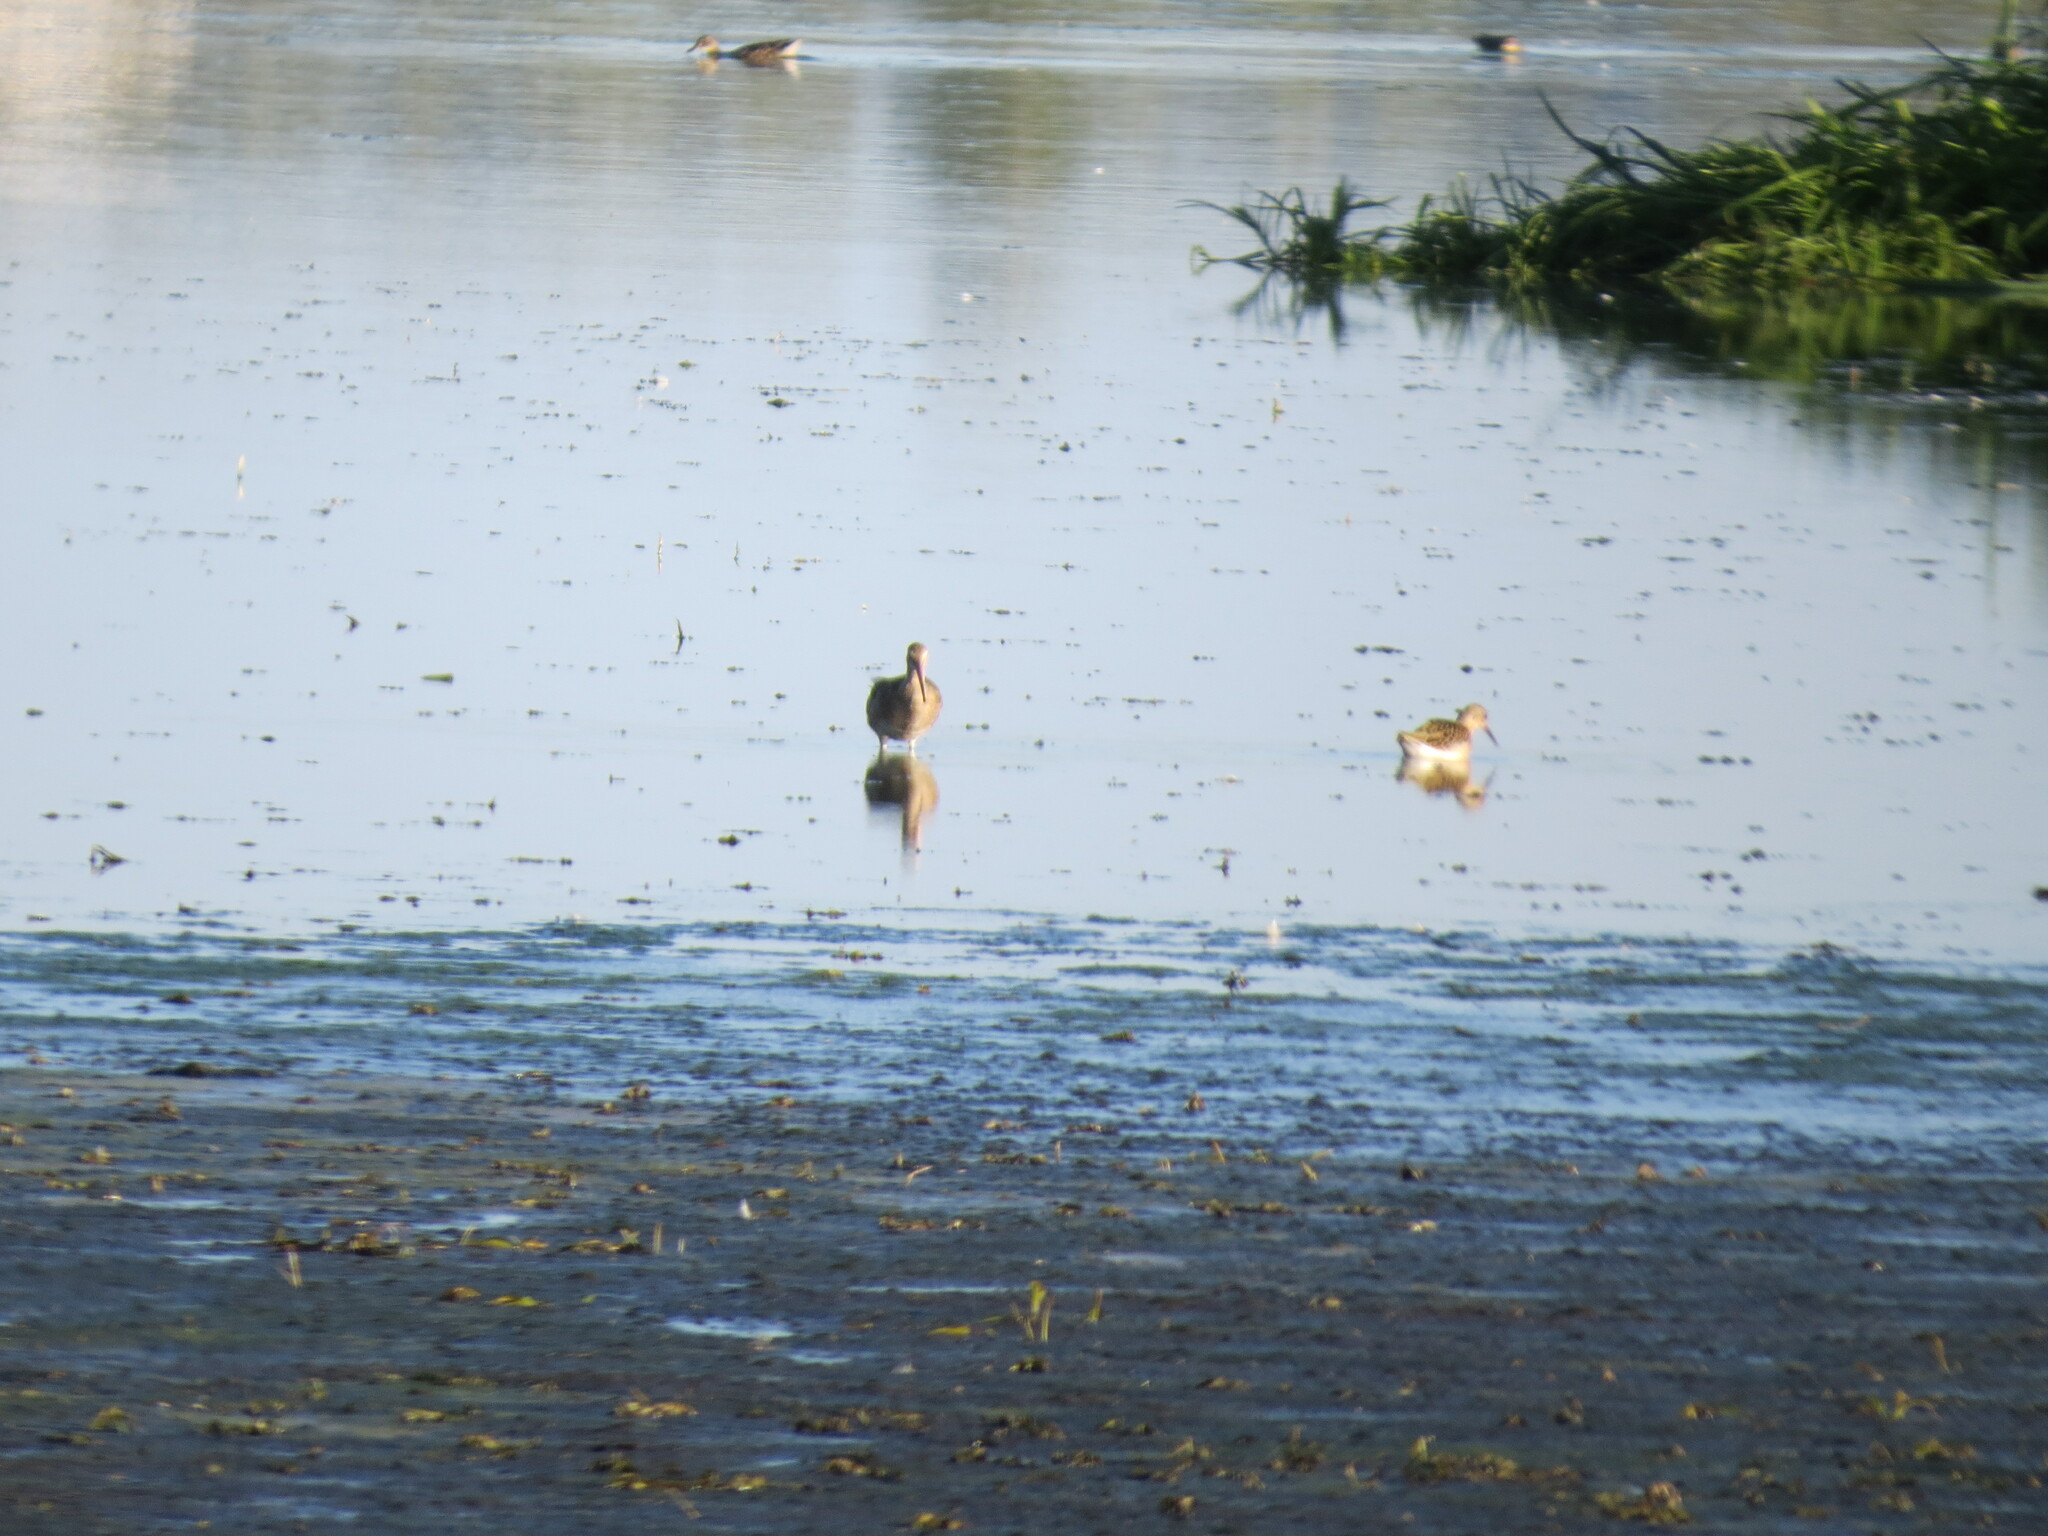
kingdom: Animalia
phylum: Chordata
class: Aves
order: Charadriiformes
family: Scolopacidae
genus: Calidris
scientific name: Calidris pugnax
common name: Ruff
